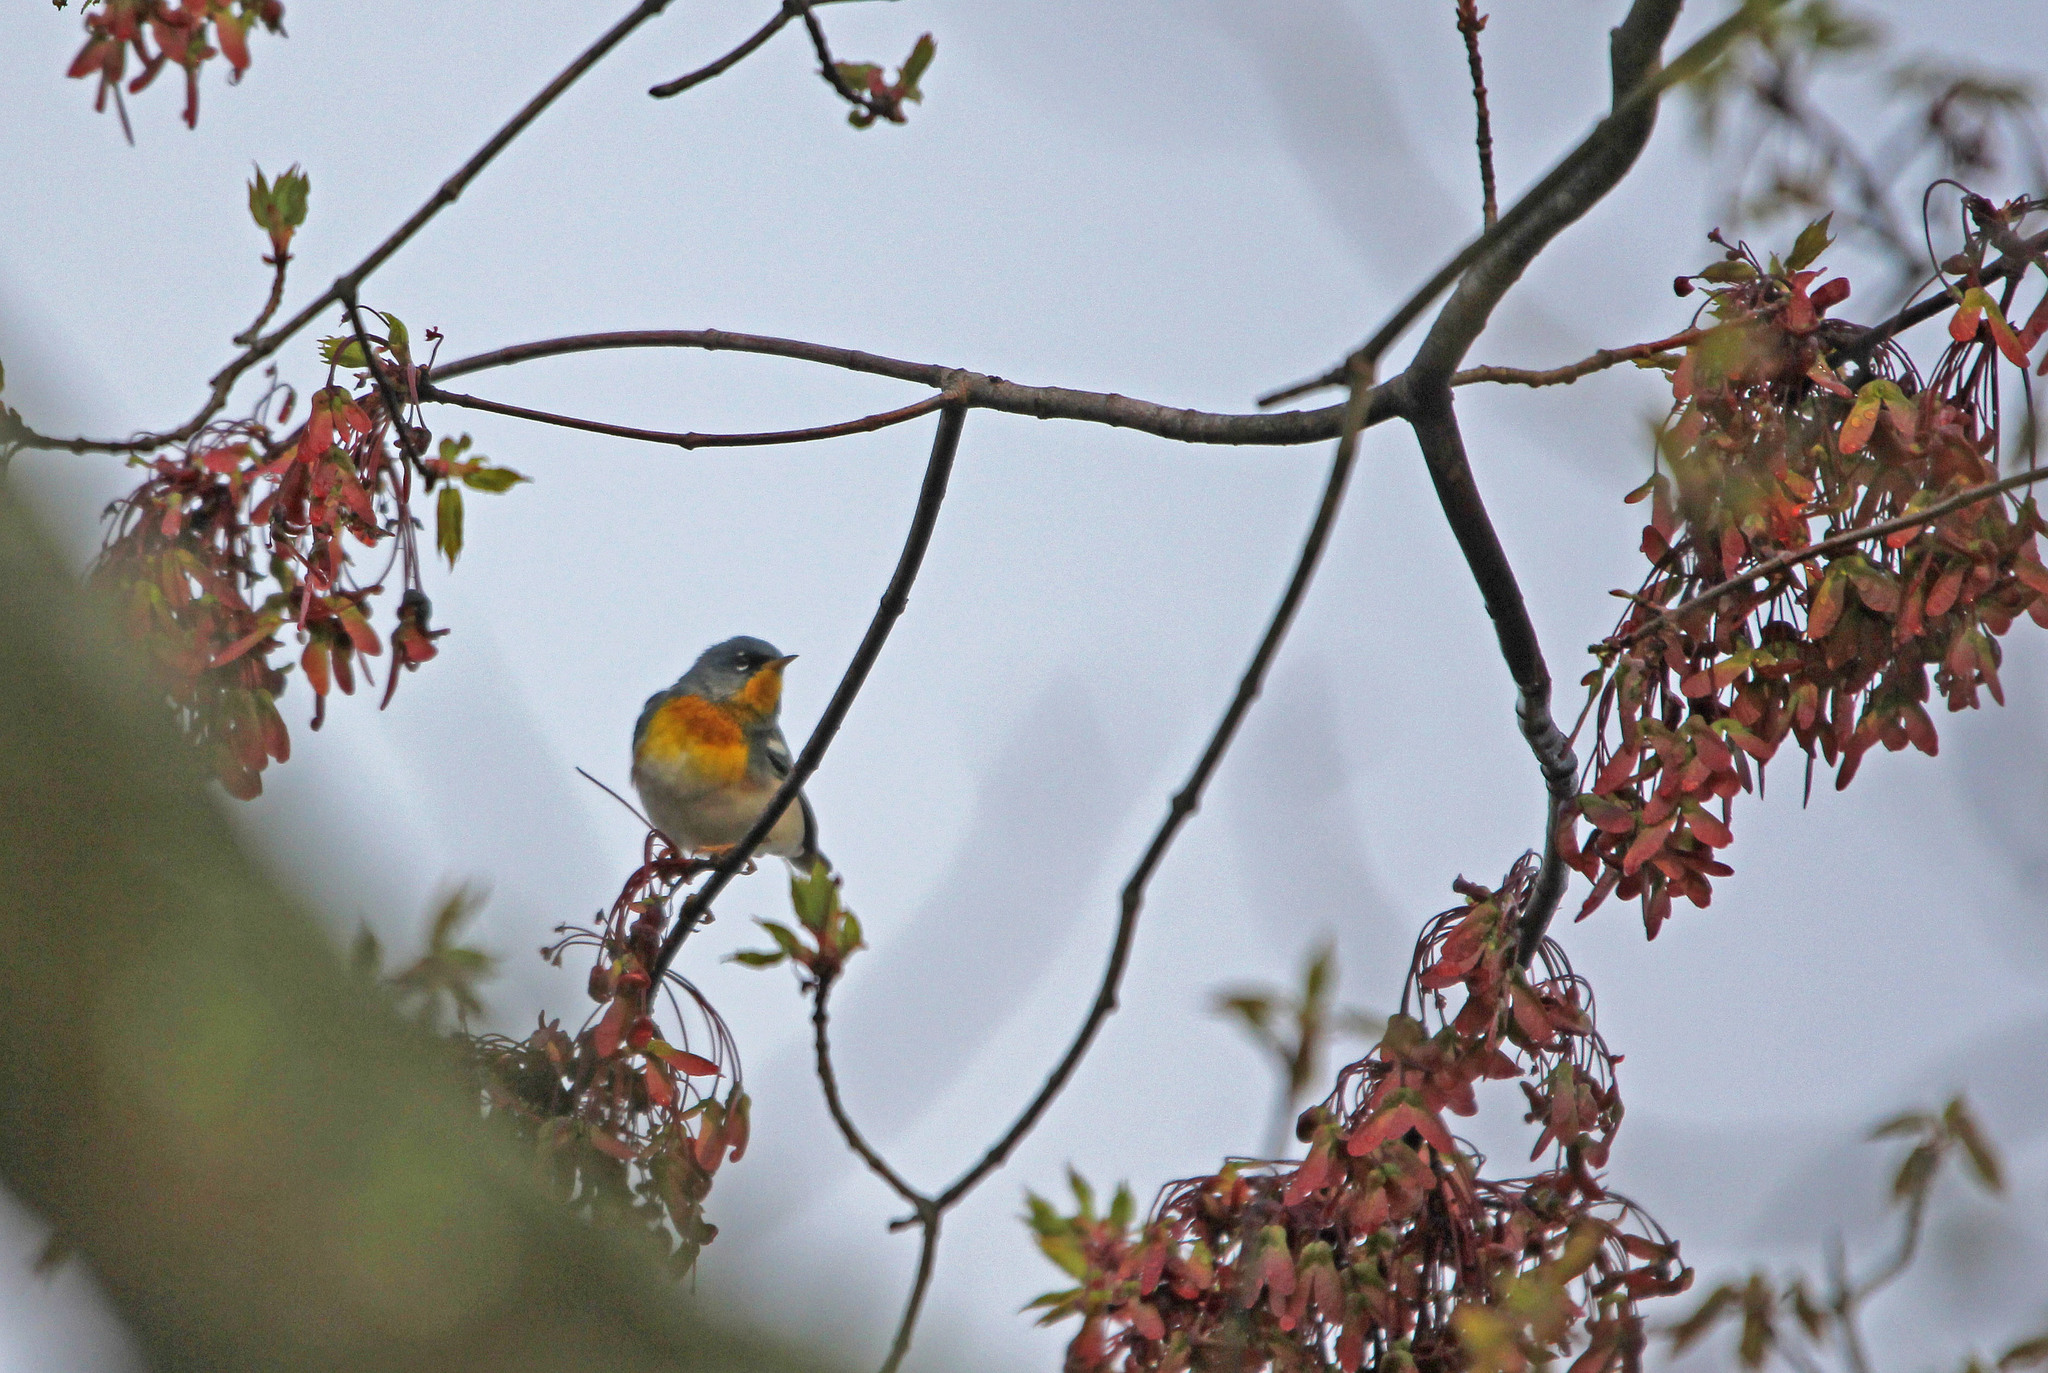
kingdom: Animalia
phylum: Chordata
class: Aves
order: Passeriformes
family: Parulidae
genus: Setophaga
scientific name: Setophaga americana
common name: Northern parula
